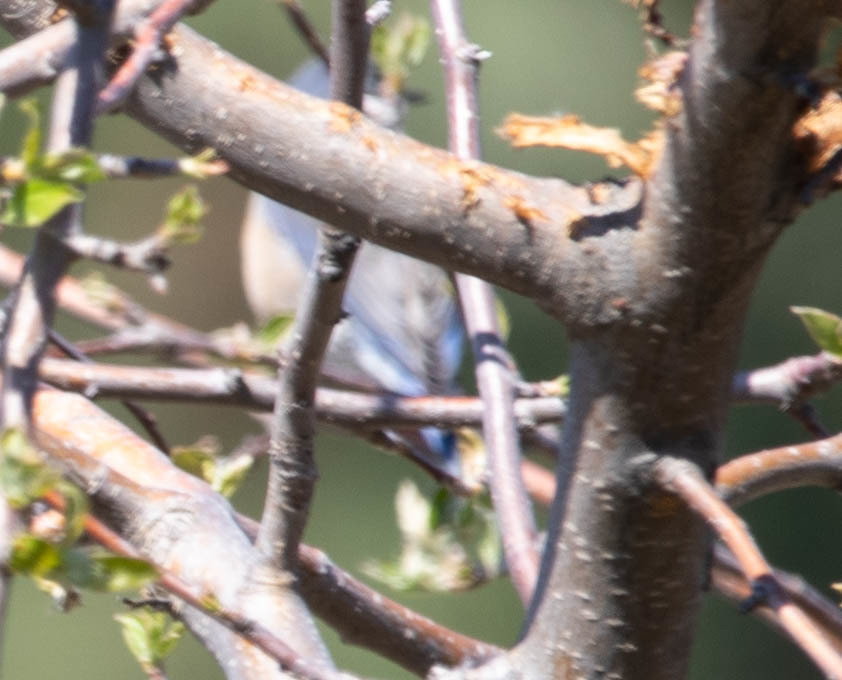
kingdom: Animalia
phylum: Chordata
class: Aves
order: Passeriformes
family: Turdidae
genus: Sialia
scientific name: Sialia mexicana
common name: Western bluebird
